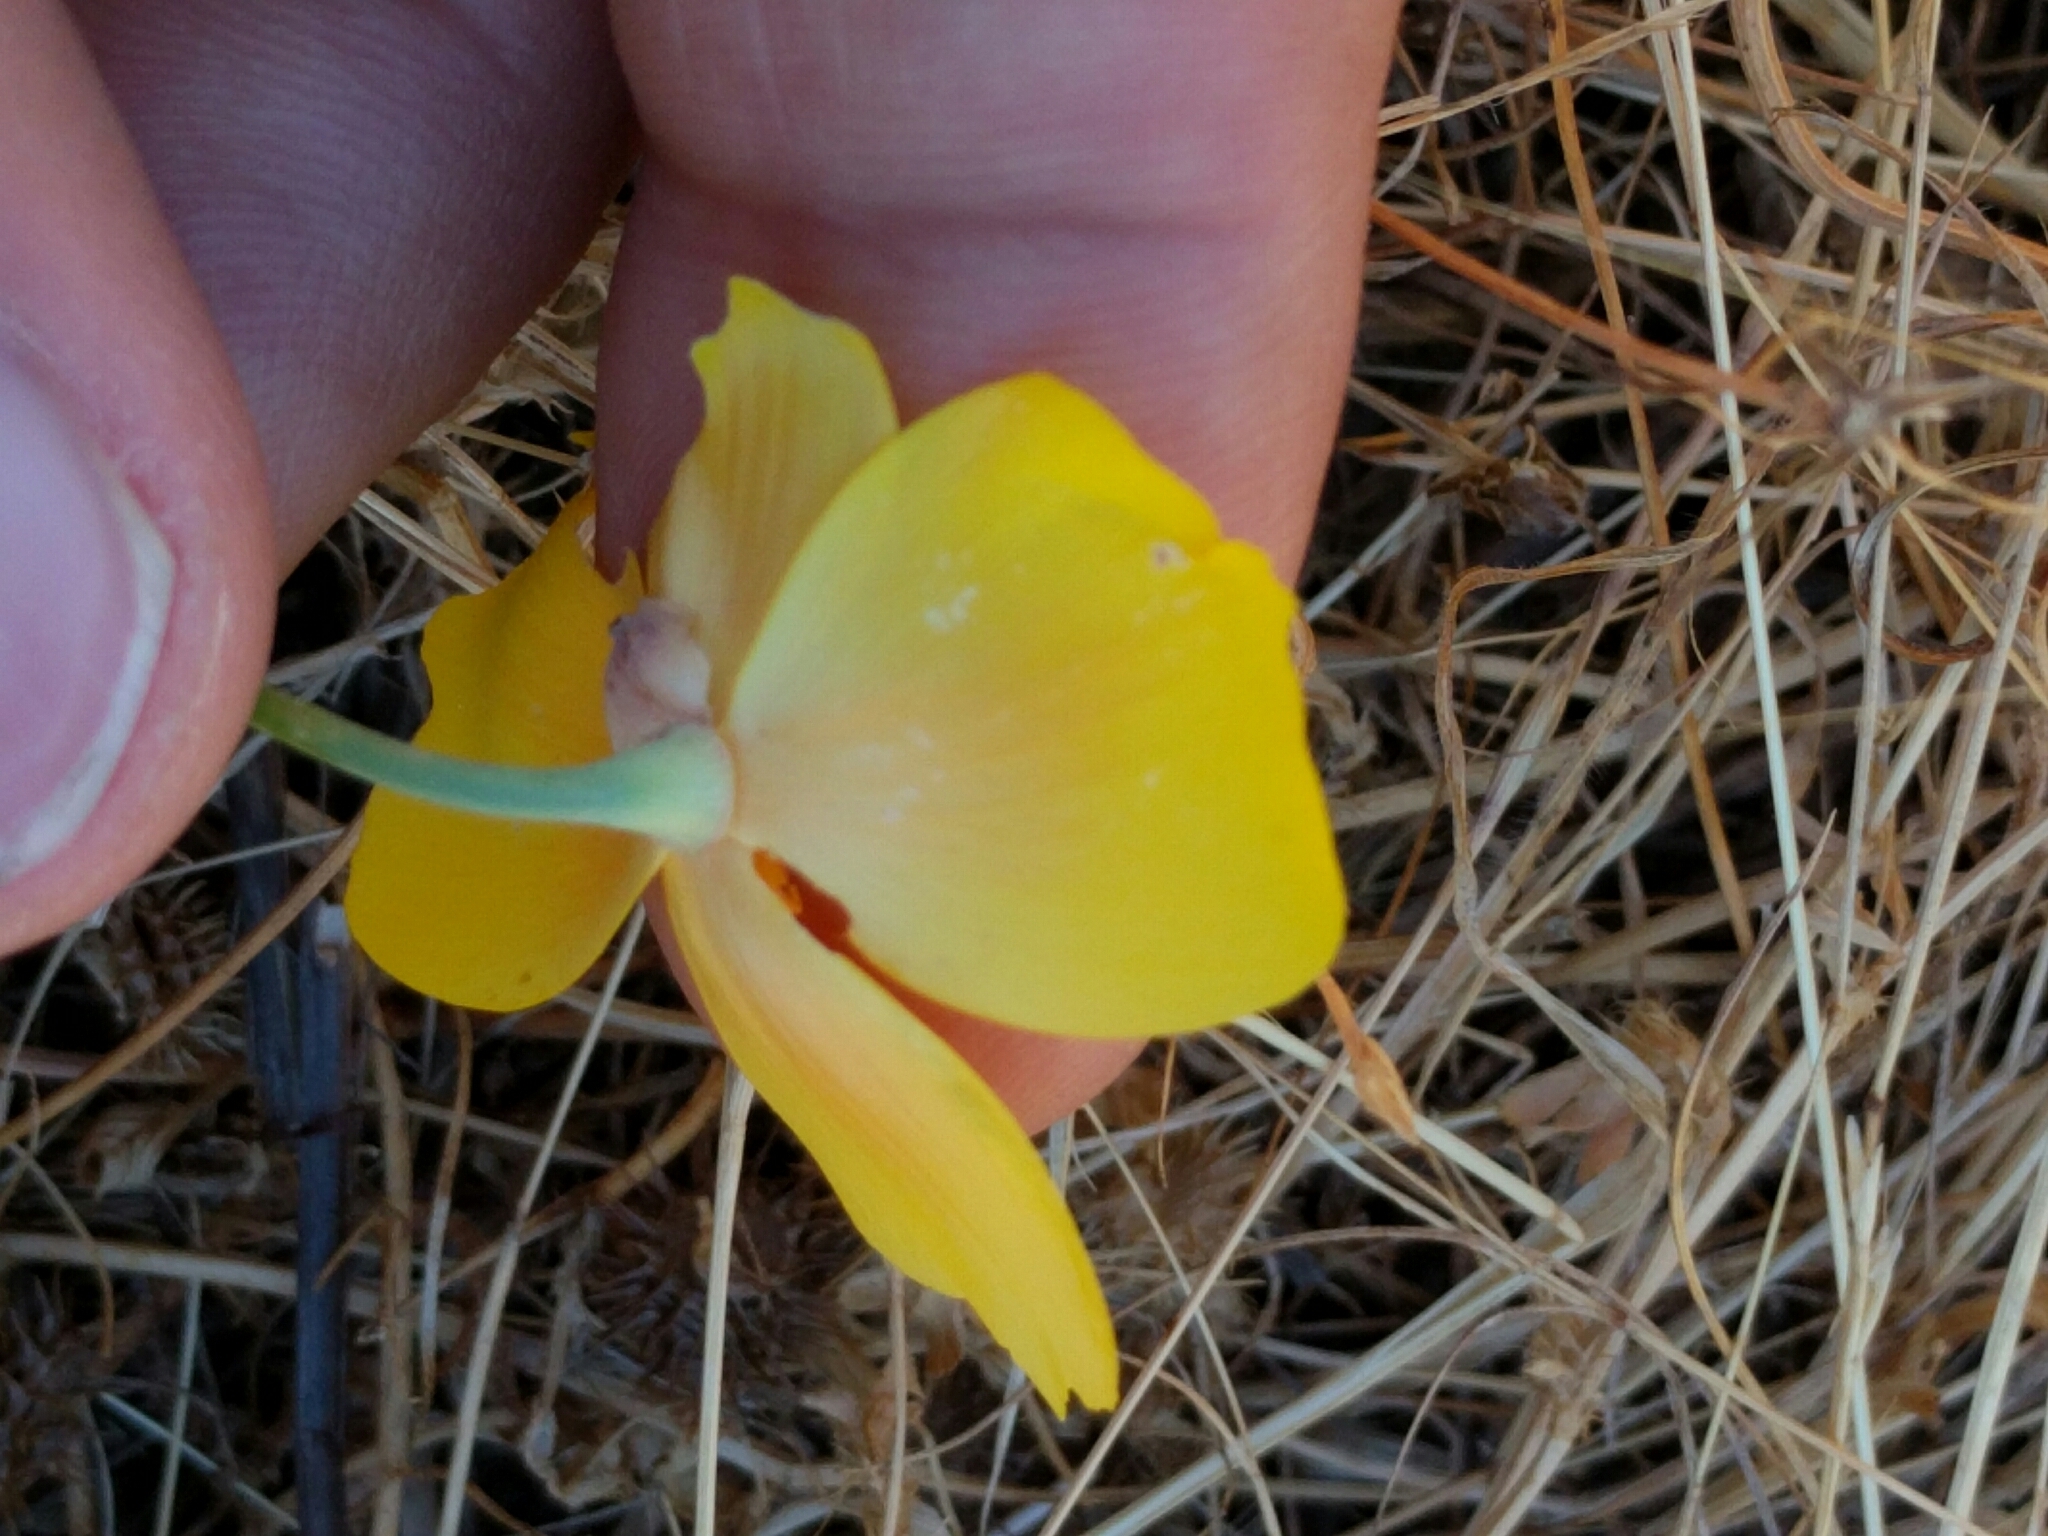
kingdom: Plantae
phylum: Tracheophyta
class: Magnoliopsida
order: Ranunculales
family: Papaveraceae
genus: Eschscholzia
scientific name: Eschscholzia californica
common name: California poppy
